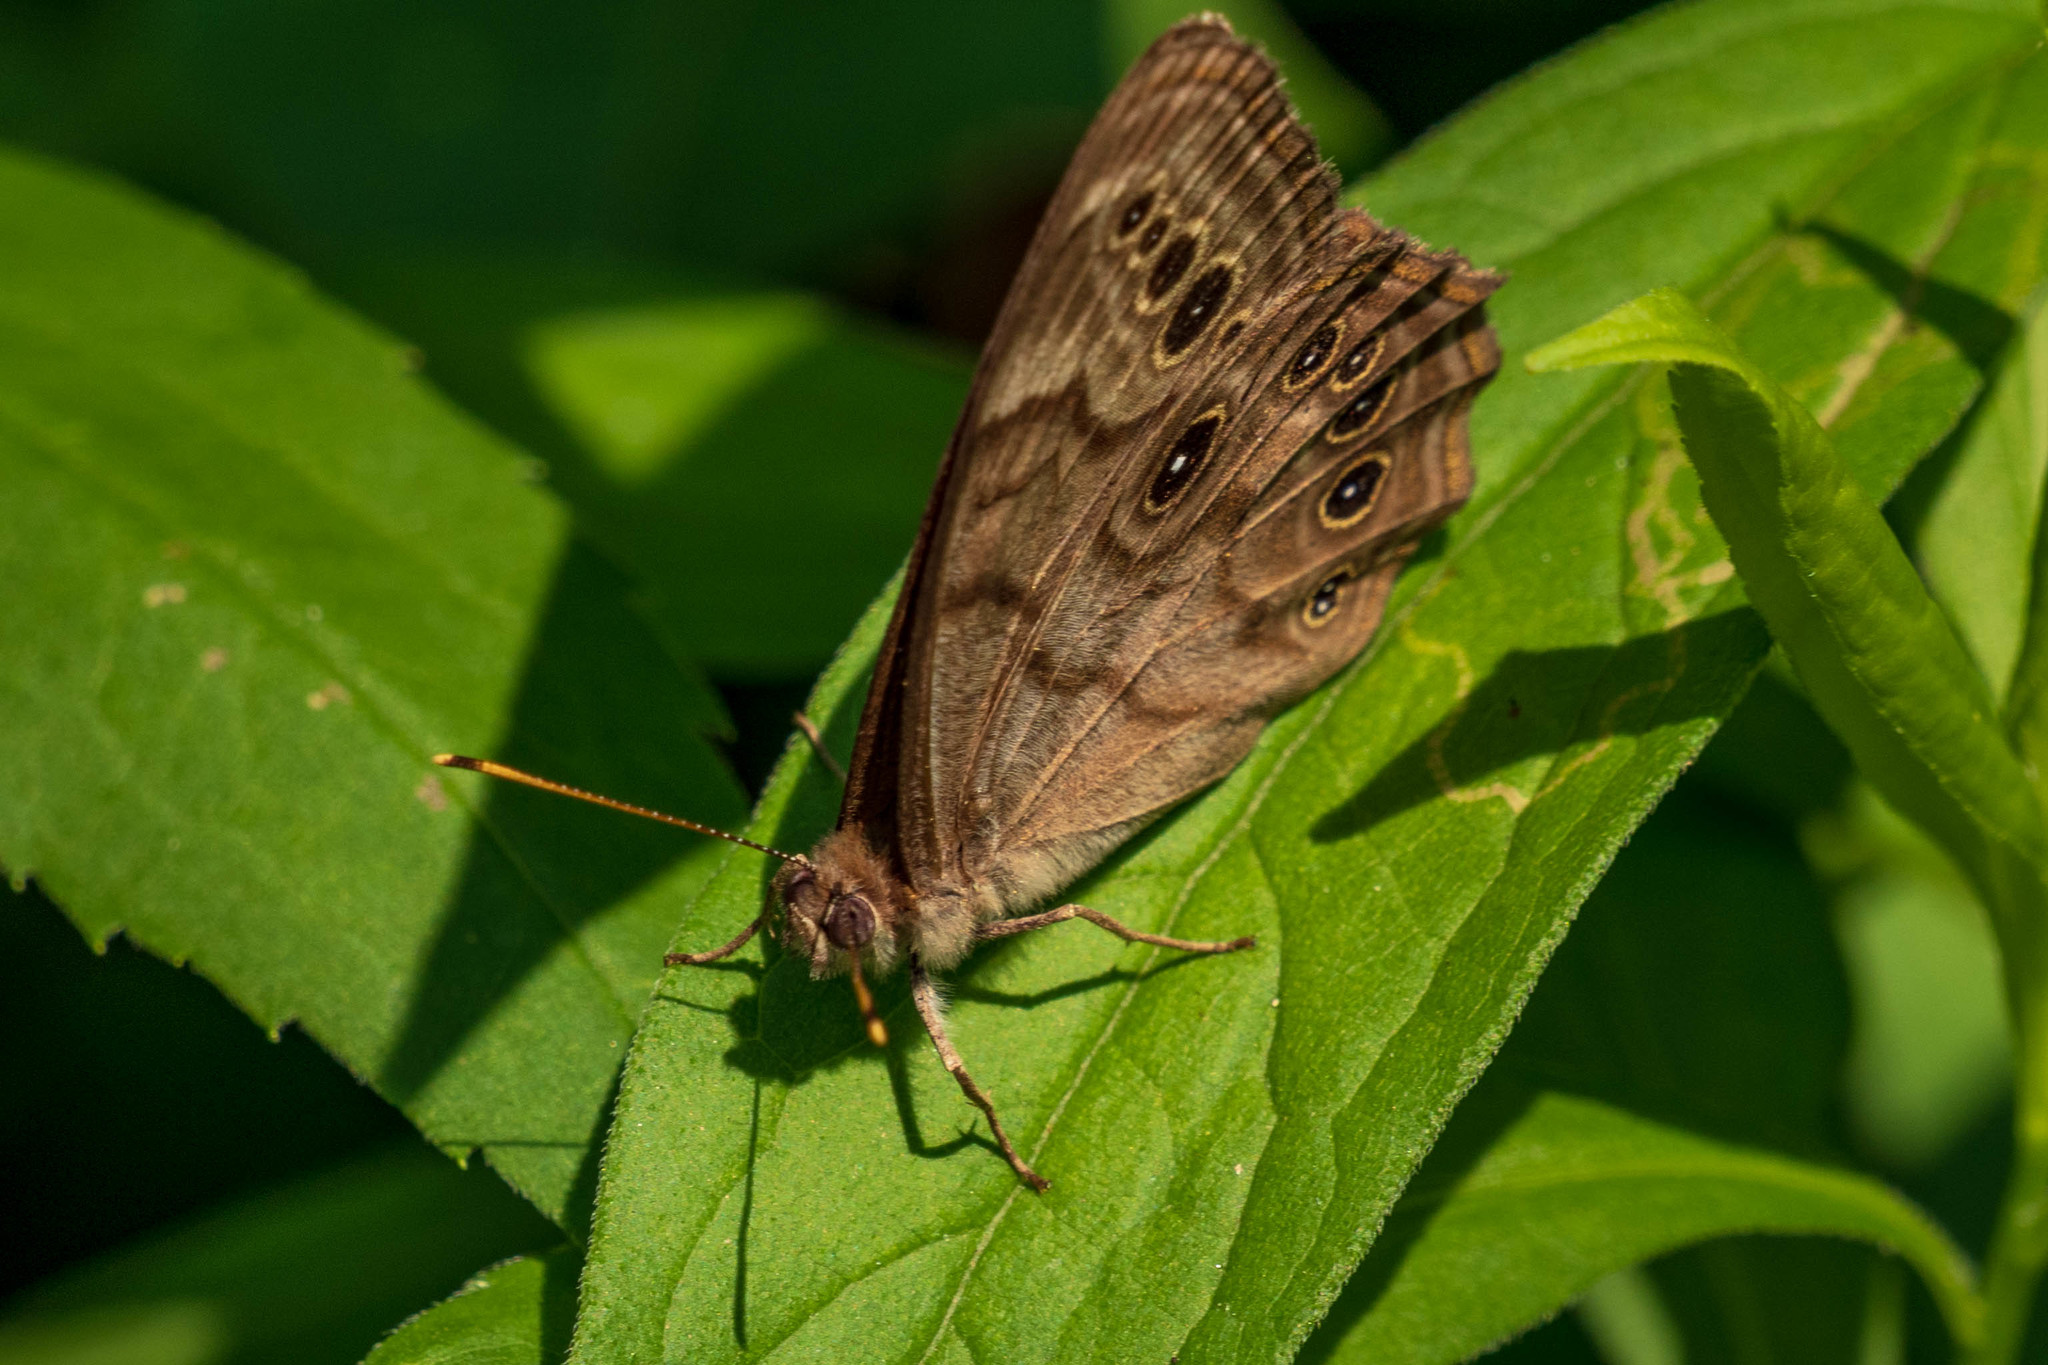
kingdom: Animalia
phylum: Arthropoda
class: Insecta
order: Lepidoptera
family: Nymphalidae
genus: Lethe
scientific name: Lethe anthedon
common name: Northern pearly-eye
